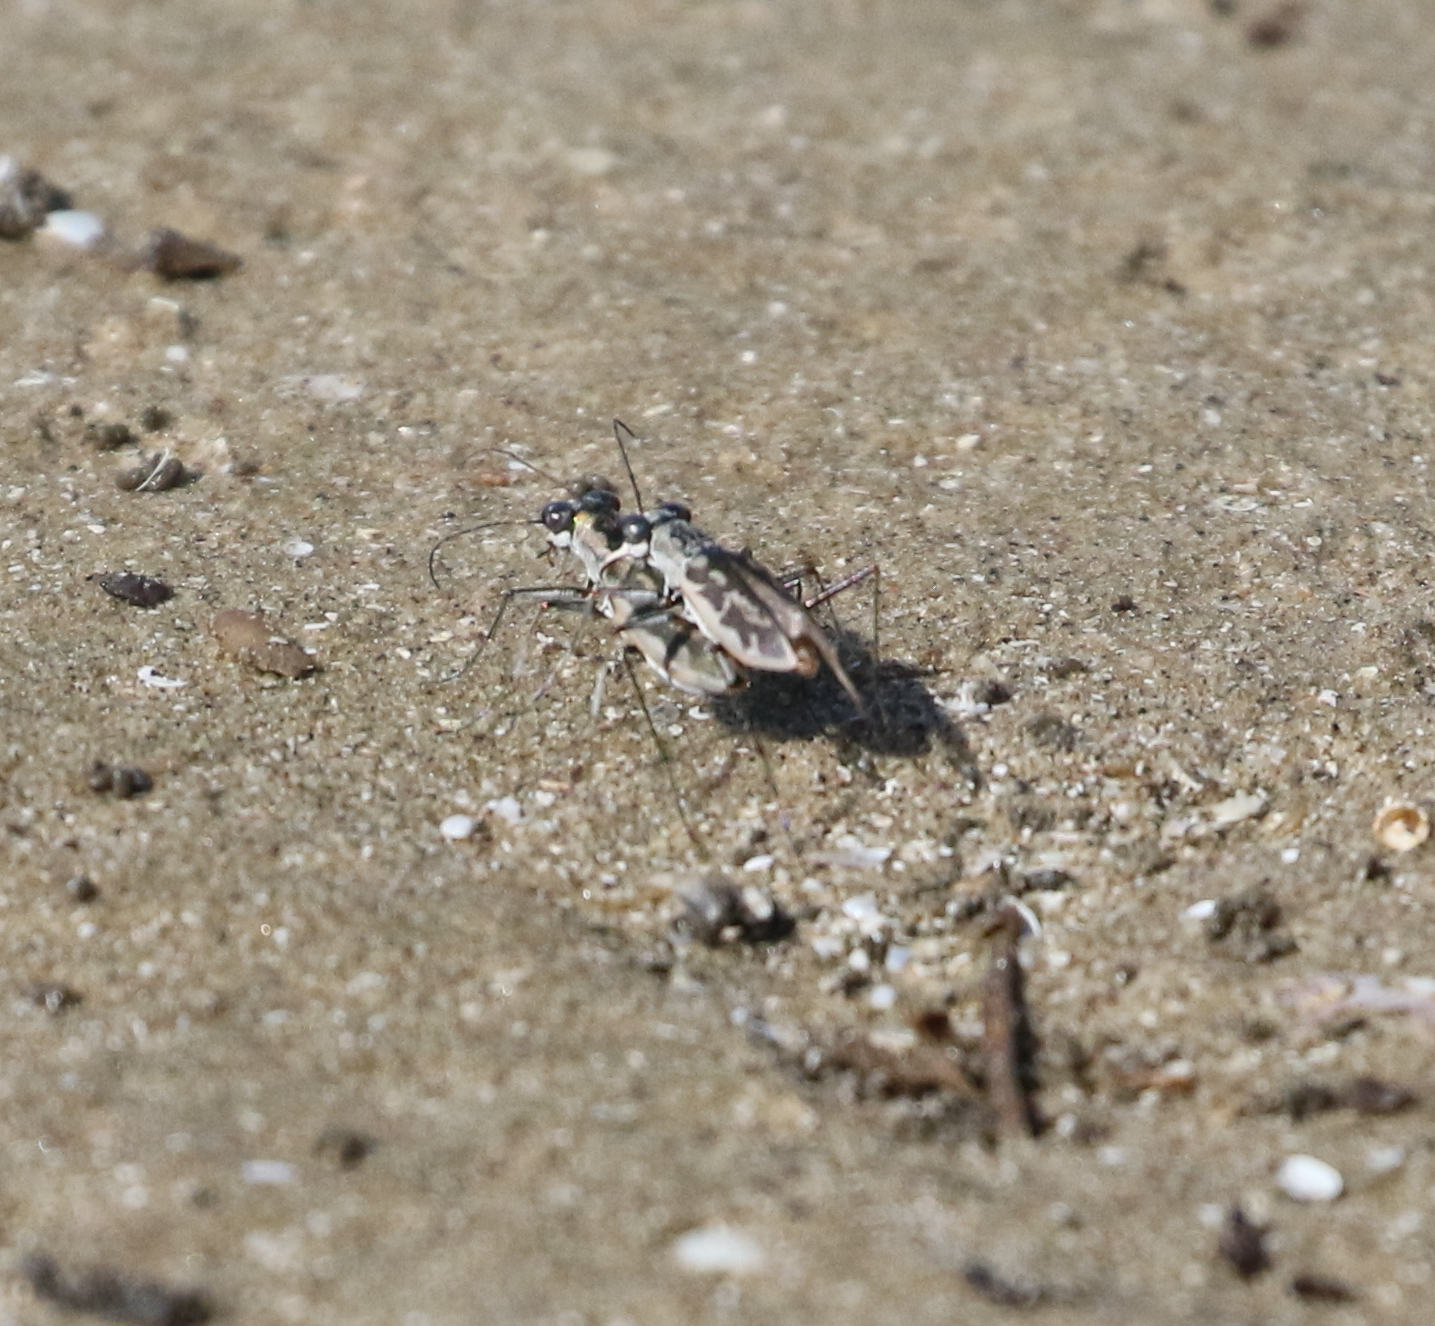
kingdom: Animalia
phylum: Arthropoda
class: Insecta
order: Coleoptera
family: Carabidae
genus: Ellipsoptera
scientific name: Ellipsoptera hamata
